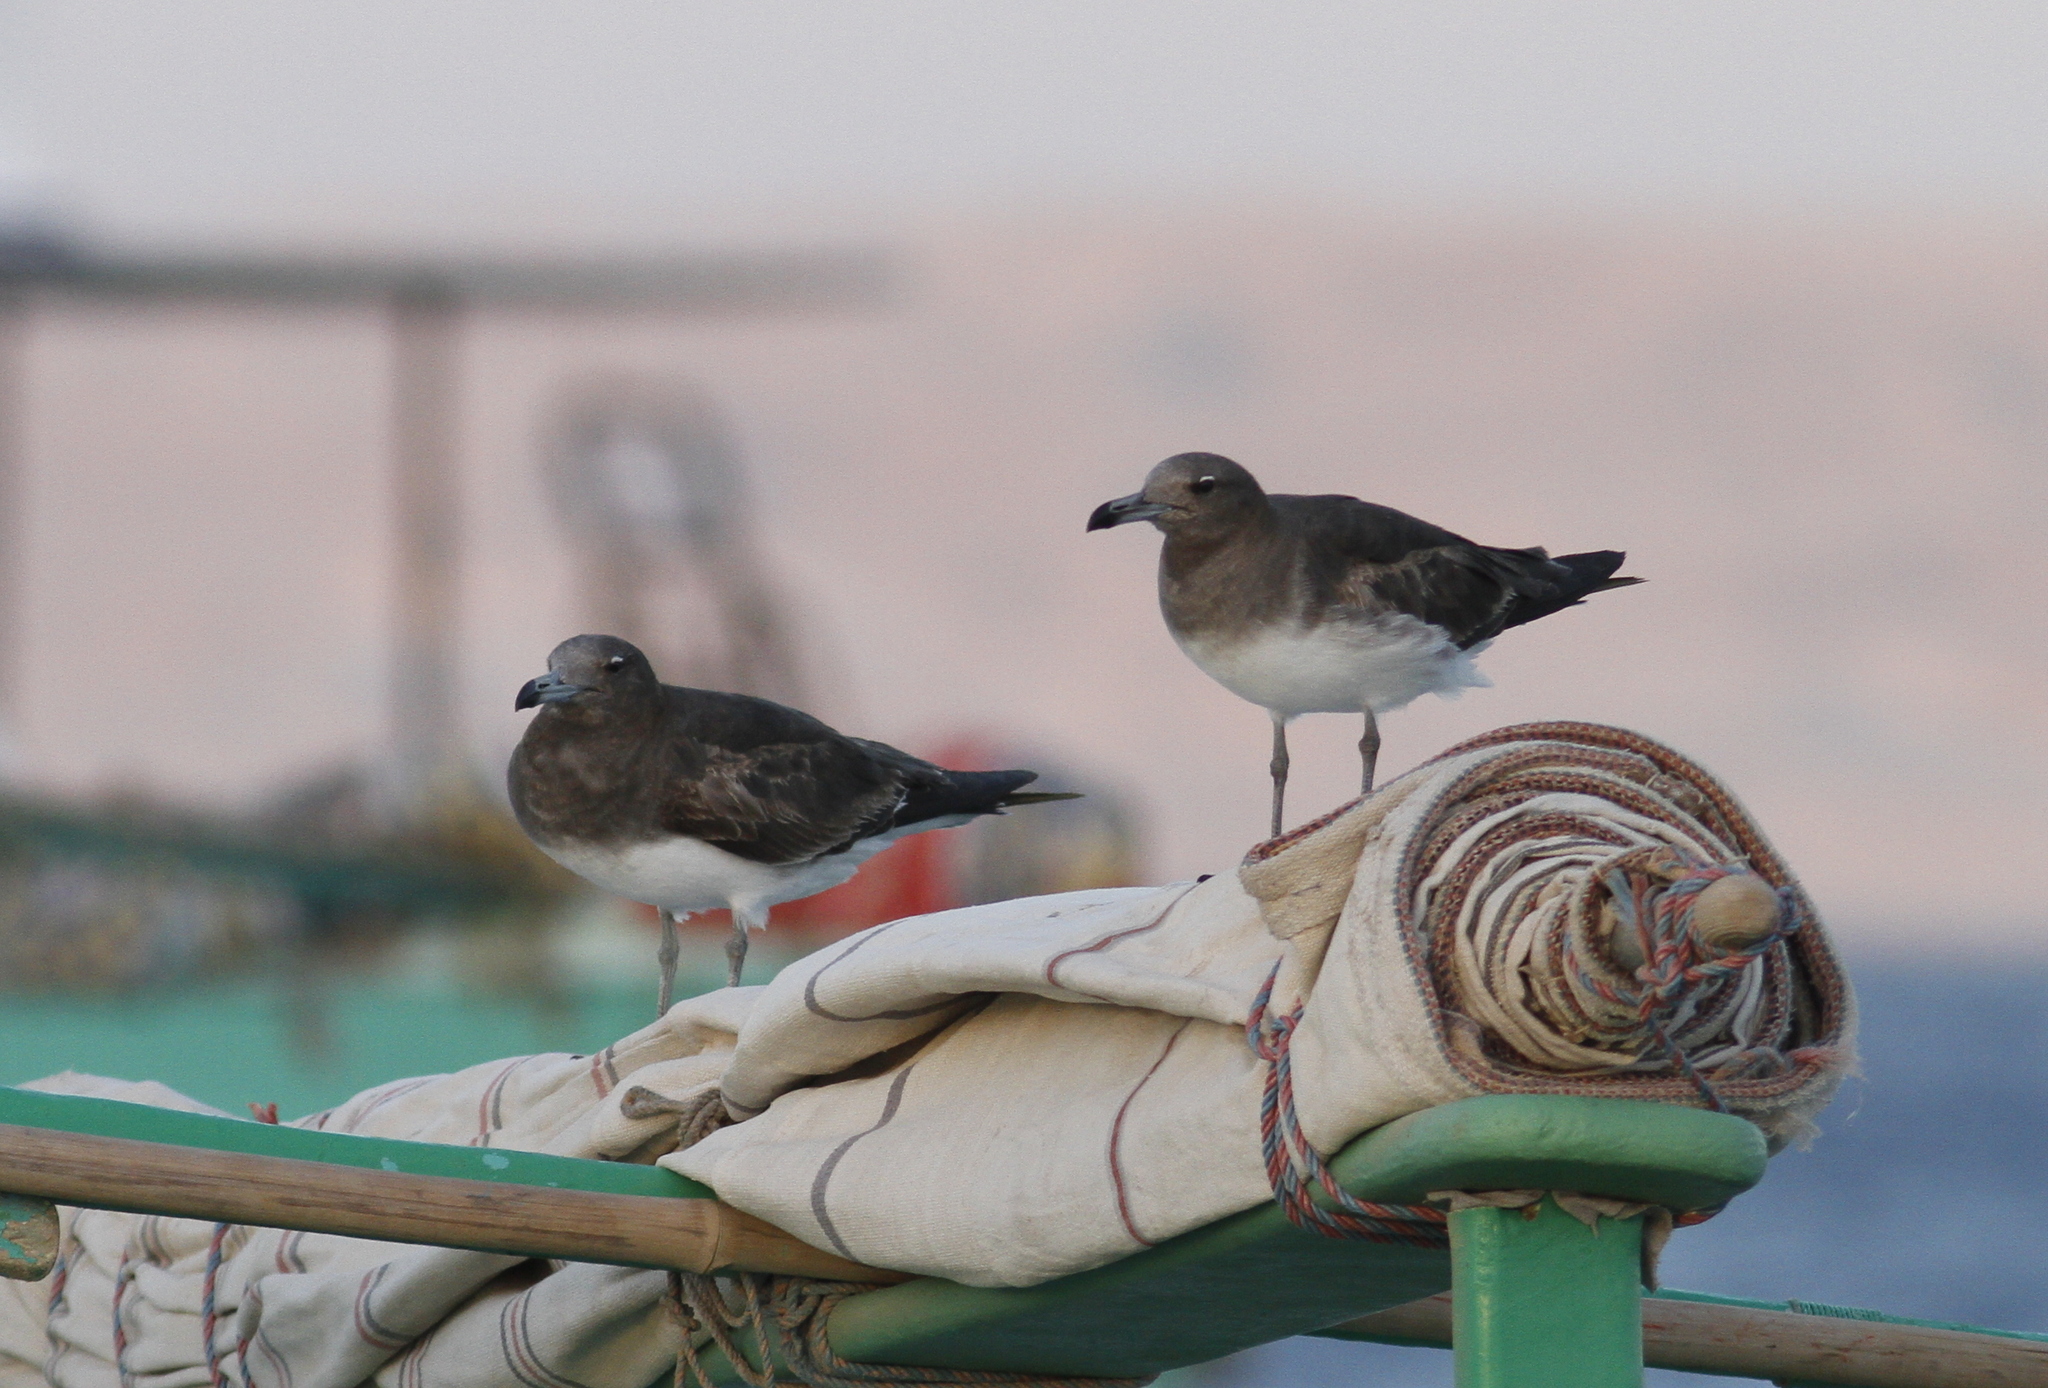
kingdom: Animalia
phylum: Chordata
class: Aves
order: Charadriiformes
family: Laridae
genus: Ichthyaetus
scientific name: Ichthyaetus hemprichii
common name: Sooty gull
